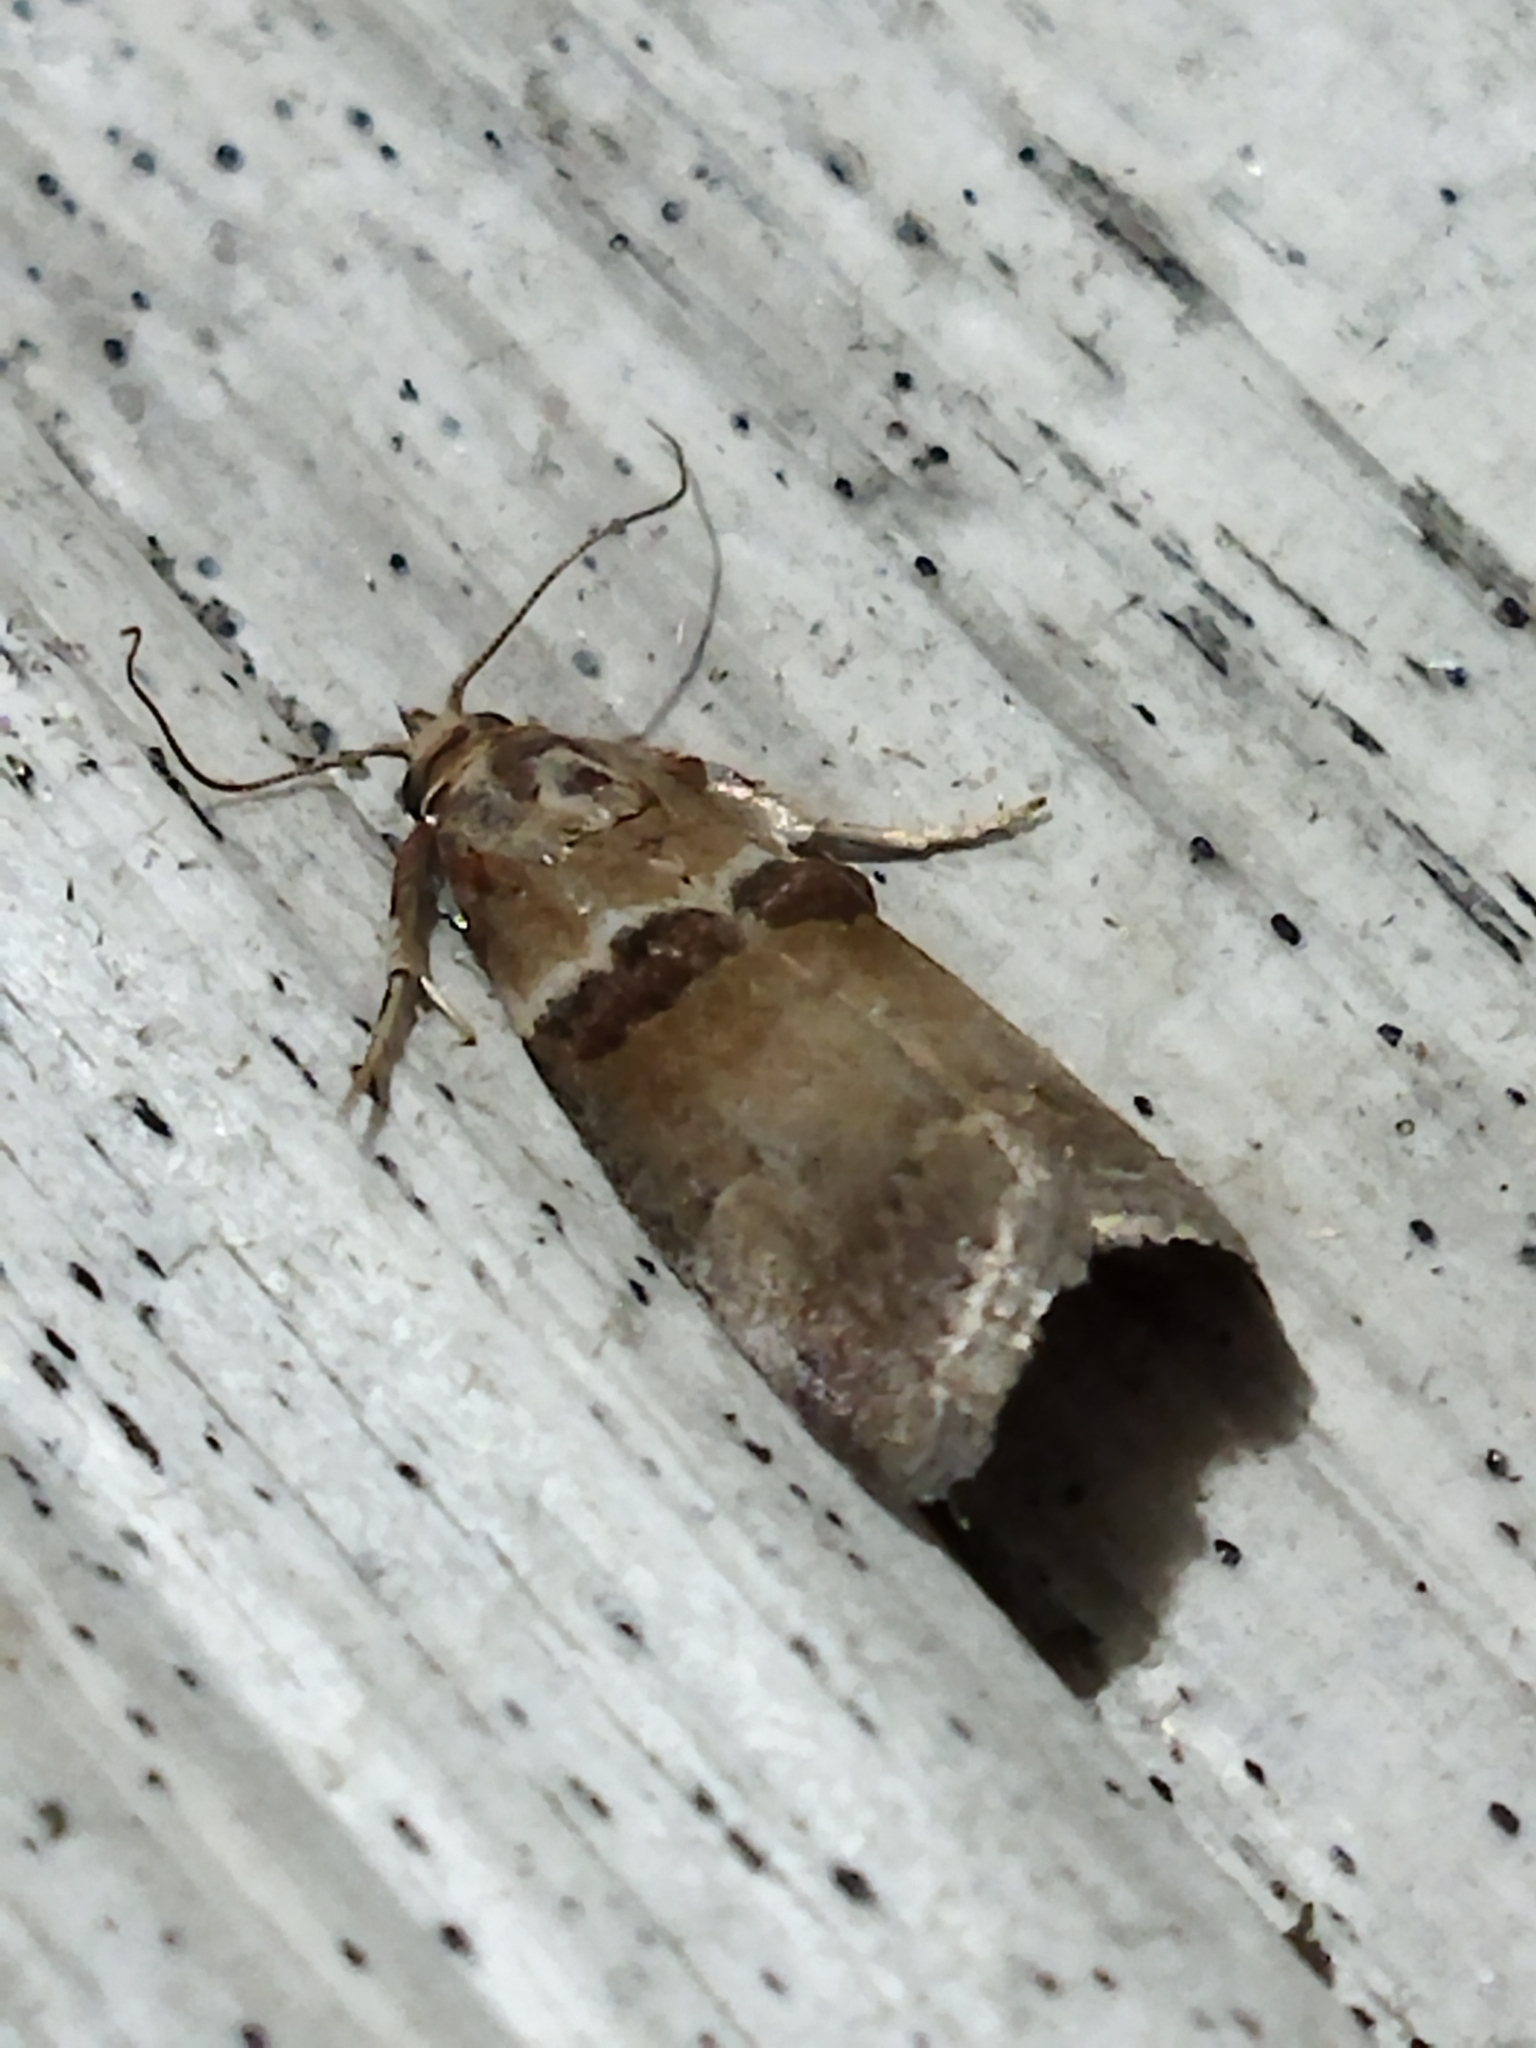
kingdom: Animalia
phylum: Arthropoda
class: Insecta
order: Lepidoptera
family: Pyralidae
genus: Acrobasis
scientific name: Acrobasis tumidana
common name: Scarce oak knot-horn
